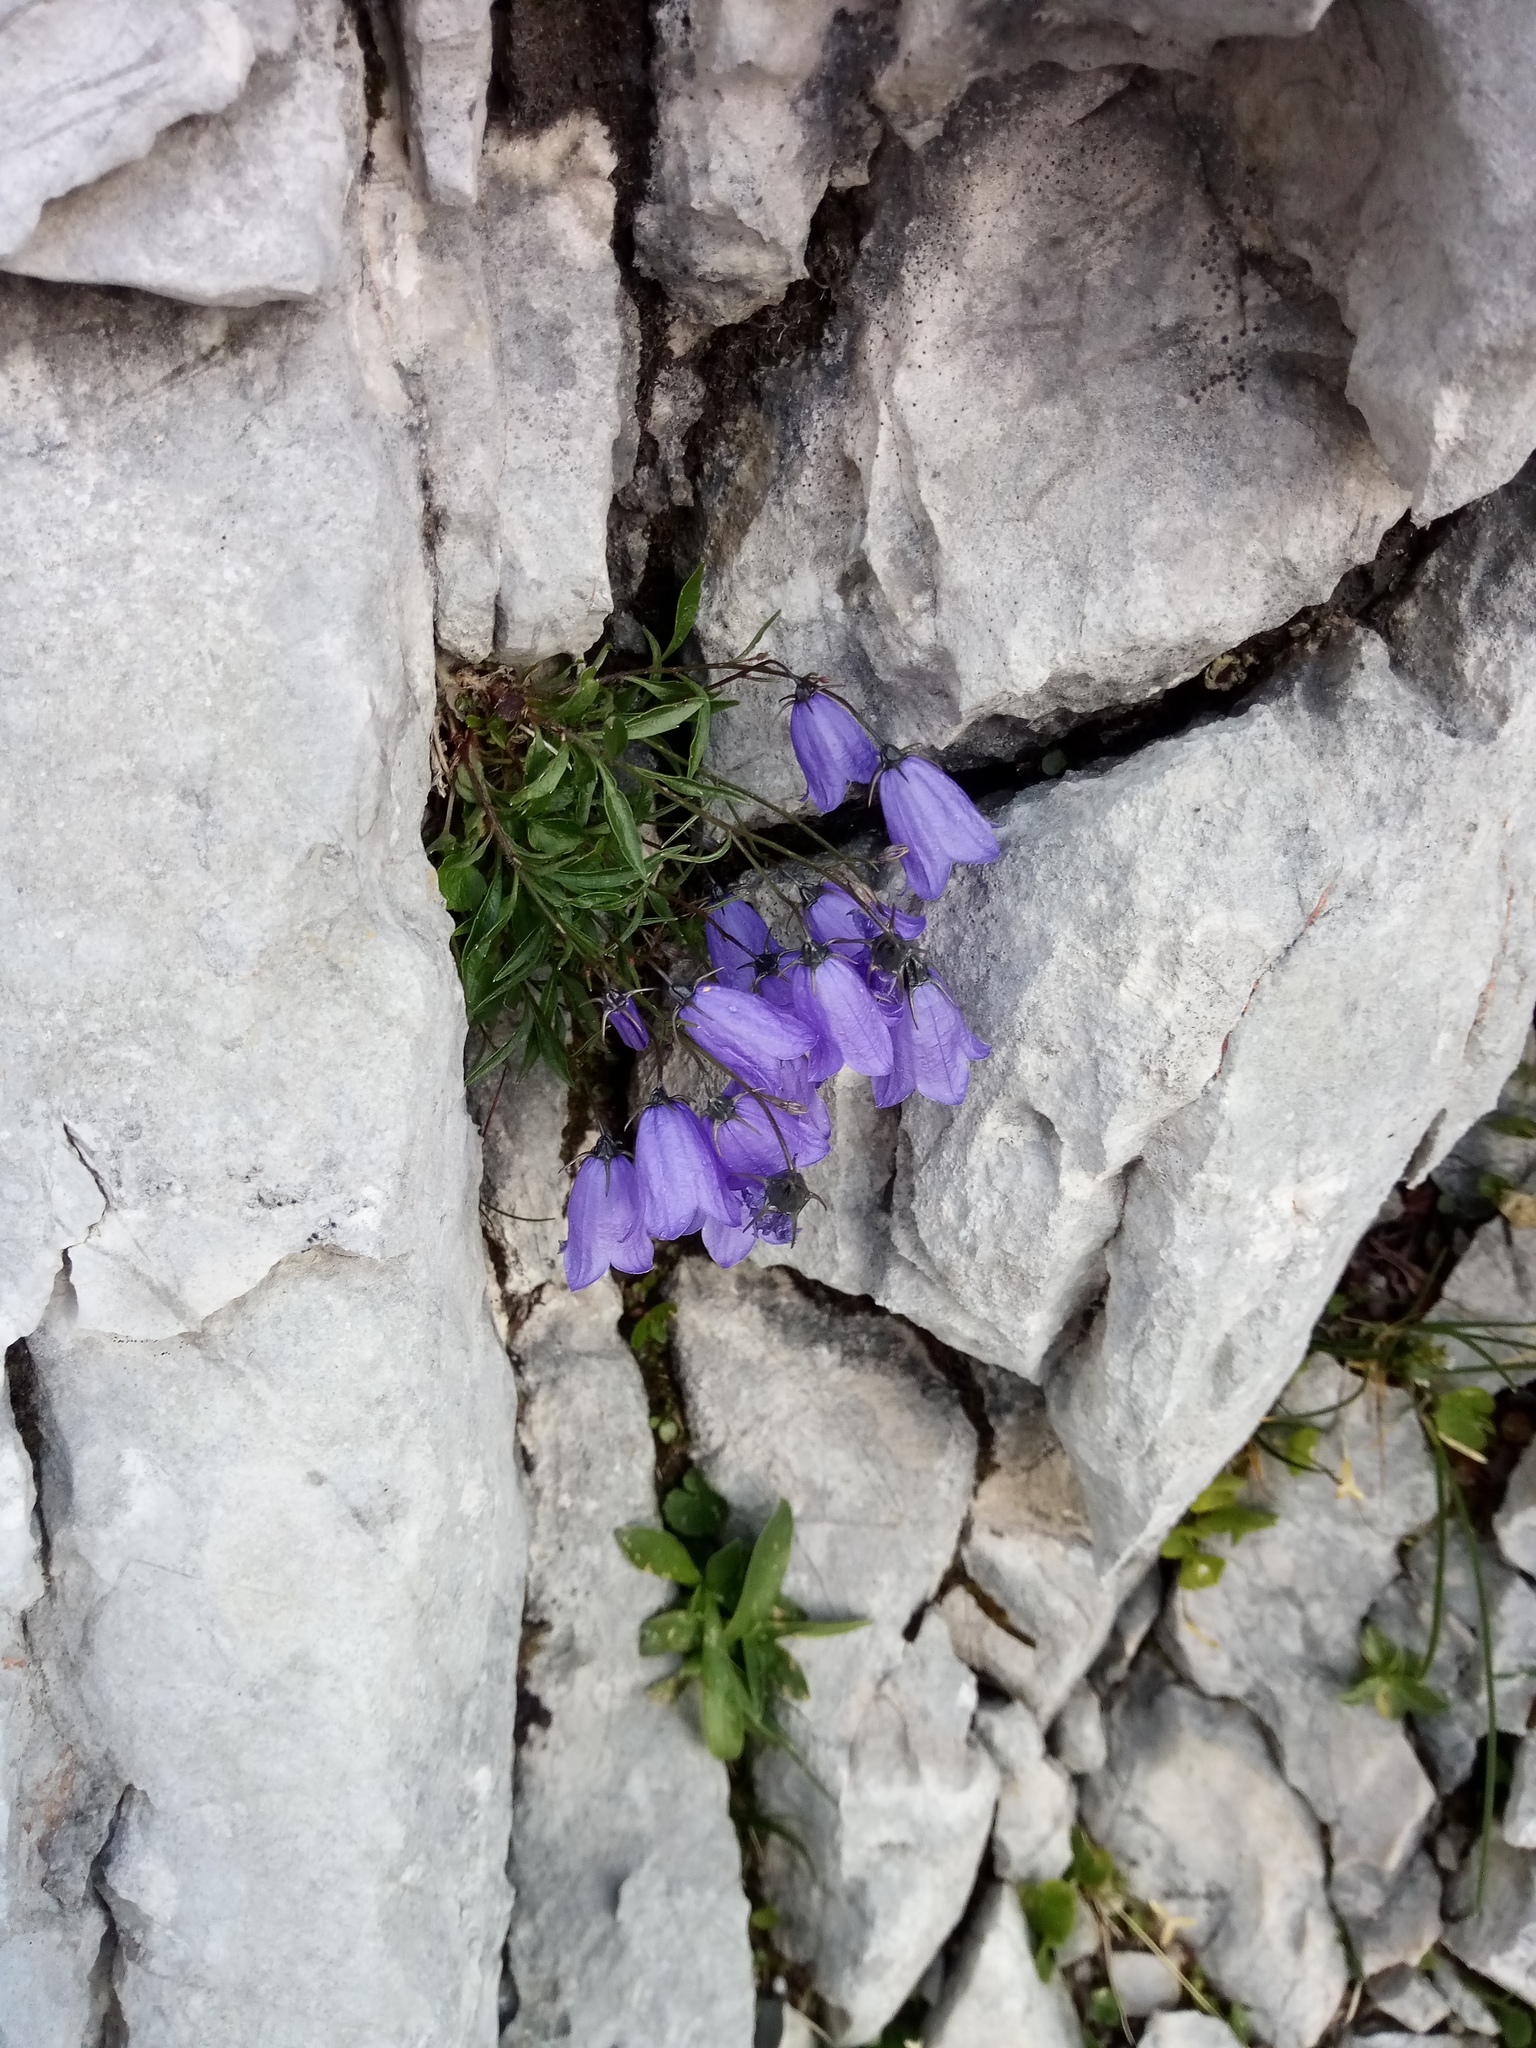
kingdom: Plantae
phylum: Tracheophyta
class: Magnoliopsida
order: Asterales
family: Campanulaceae
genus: Campanula
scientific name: Campanula cochleariifolia
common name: Fairies'-thimbles
